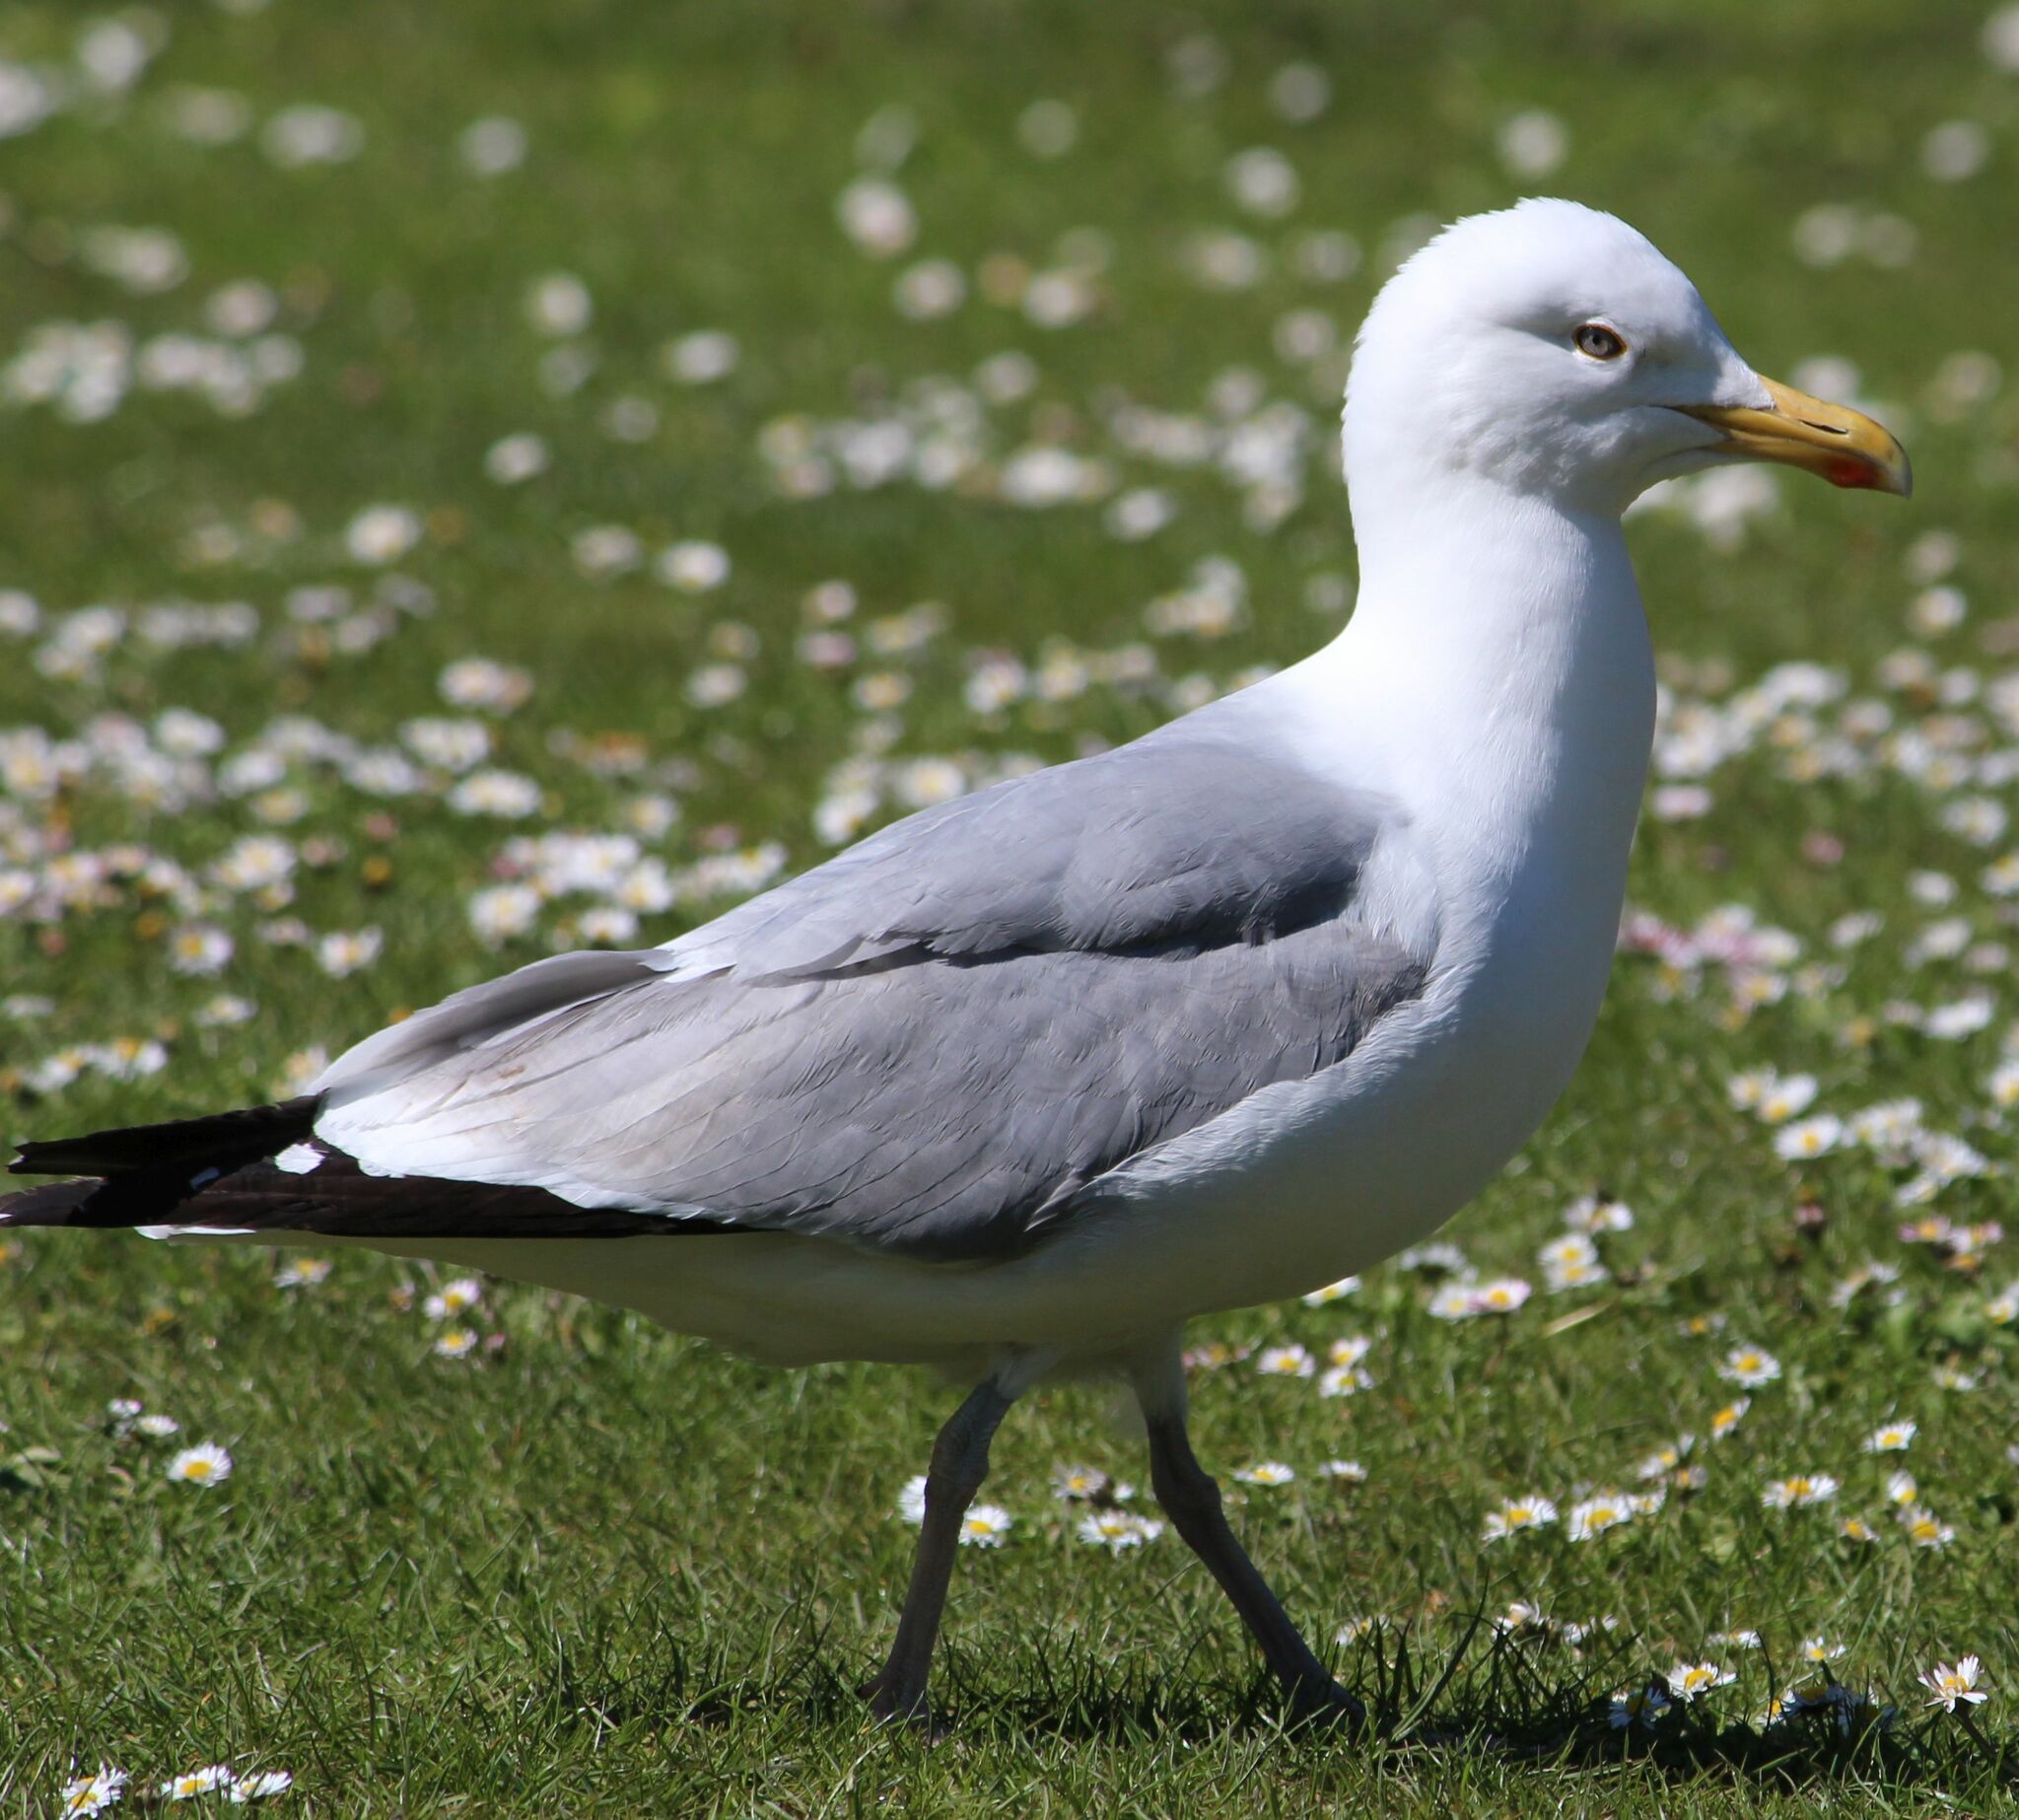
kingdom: Animalia
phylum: Chordata
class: Aves
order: Charadriiformes
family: Laridae
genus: Larus
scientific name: Larus argentatus
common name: Herring gull
